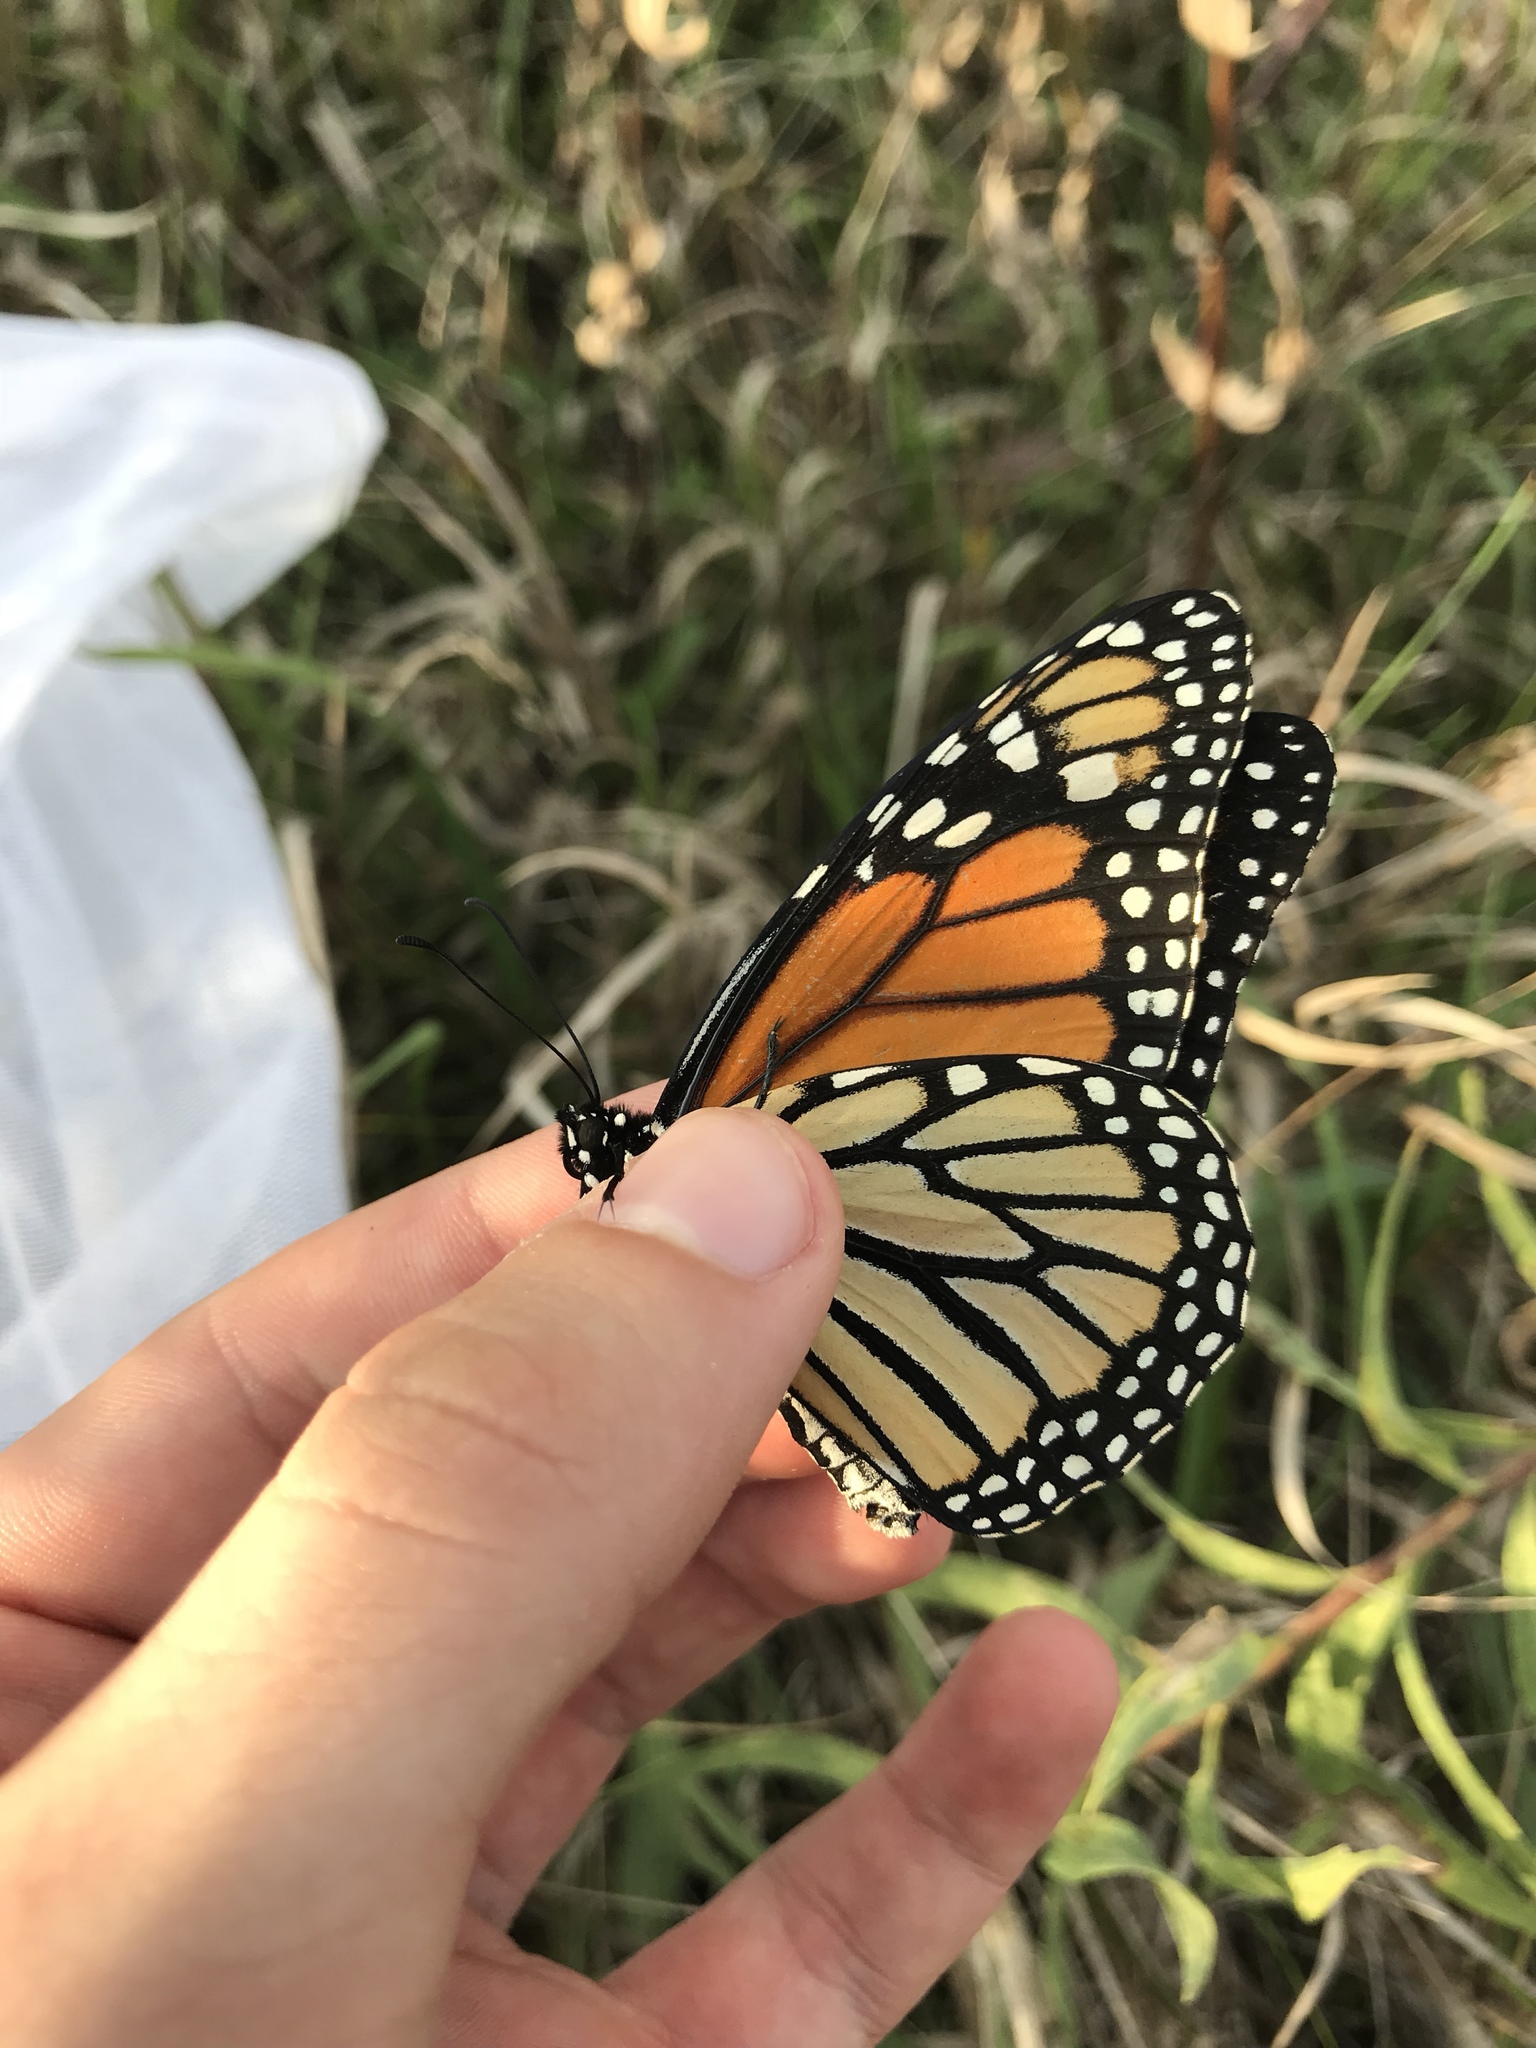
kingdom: Animalia
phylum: Arthropoda
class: Insecta
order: Lepidoptera
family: Nymphalidae
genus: Danaus
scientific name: Danaus plexippus
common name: Monarch
